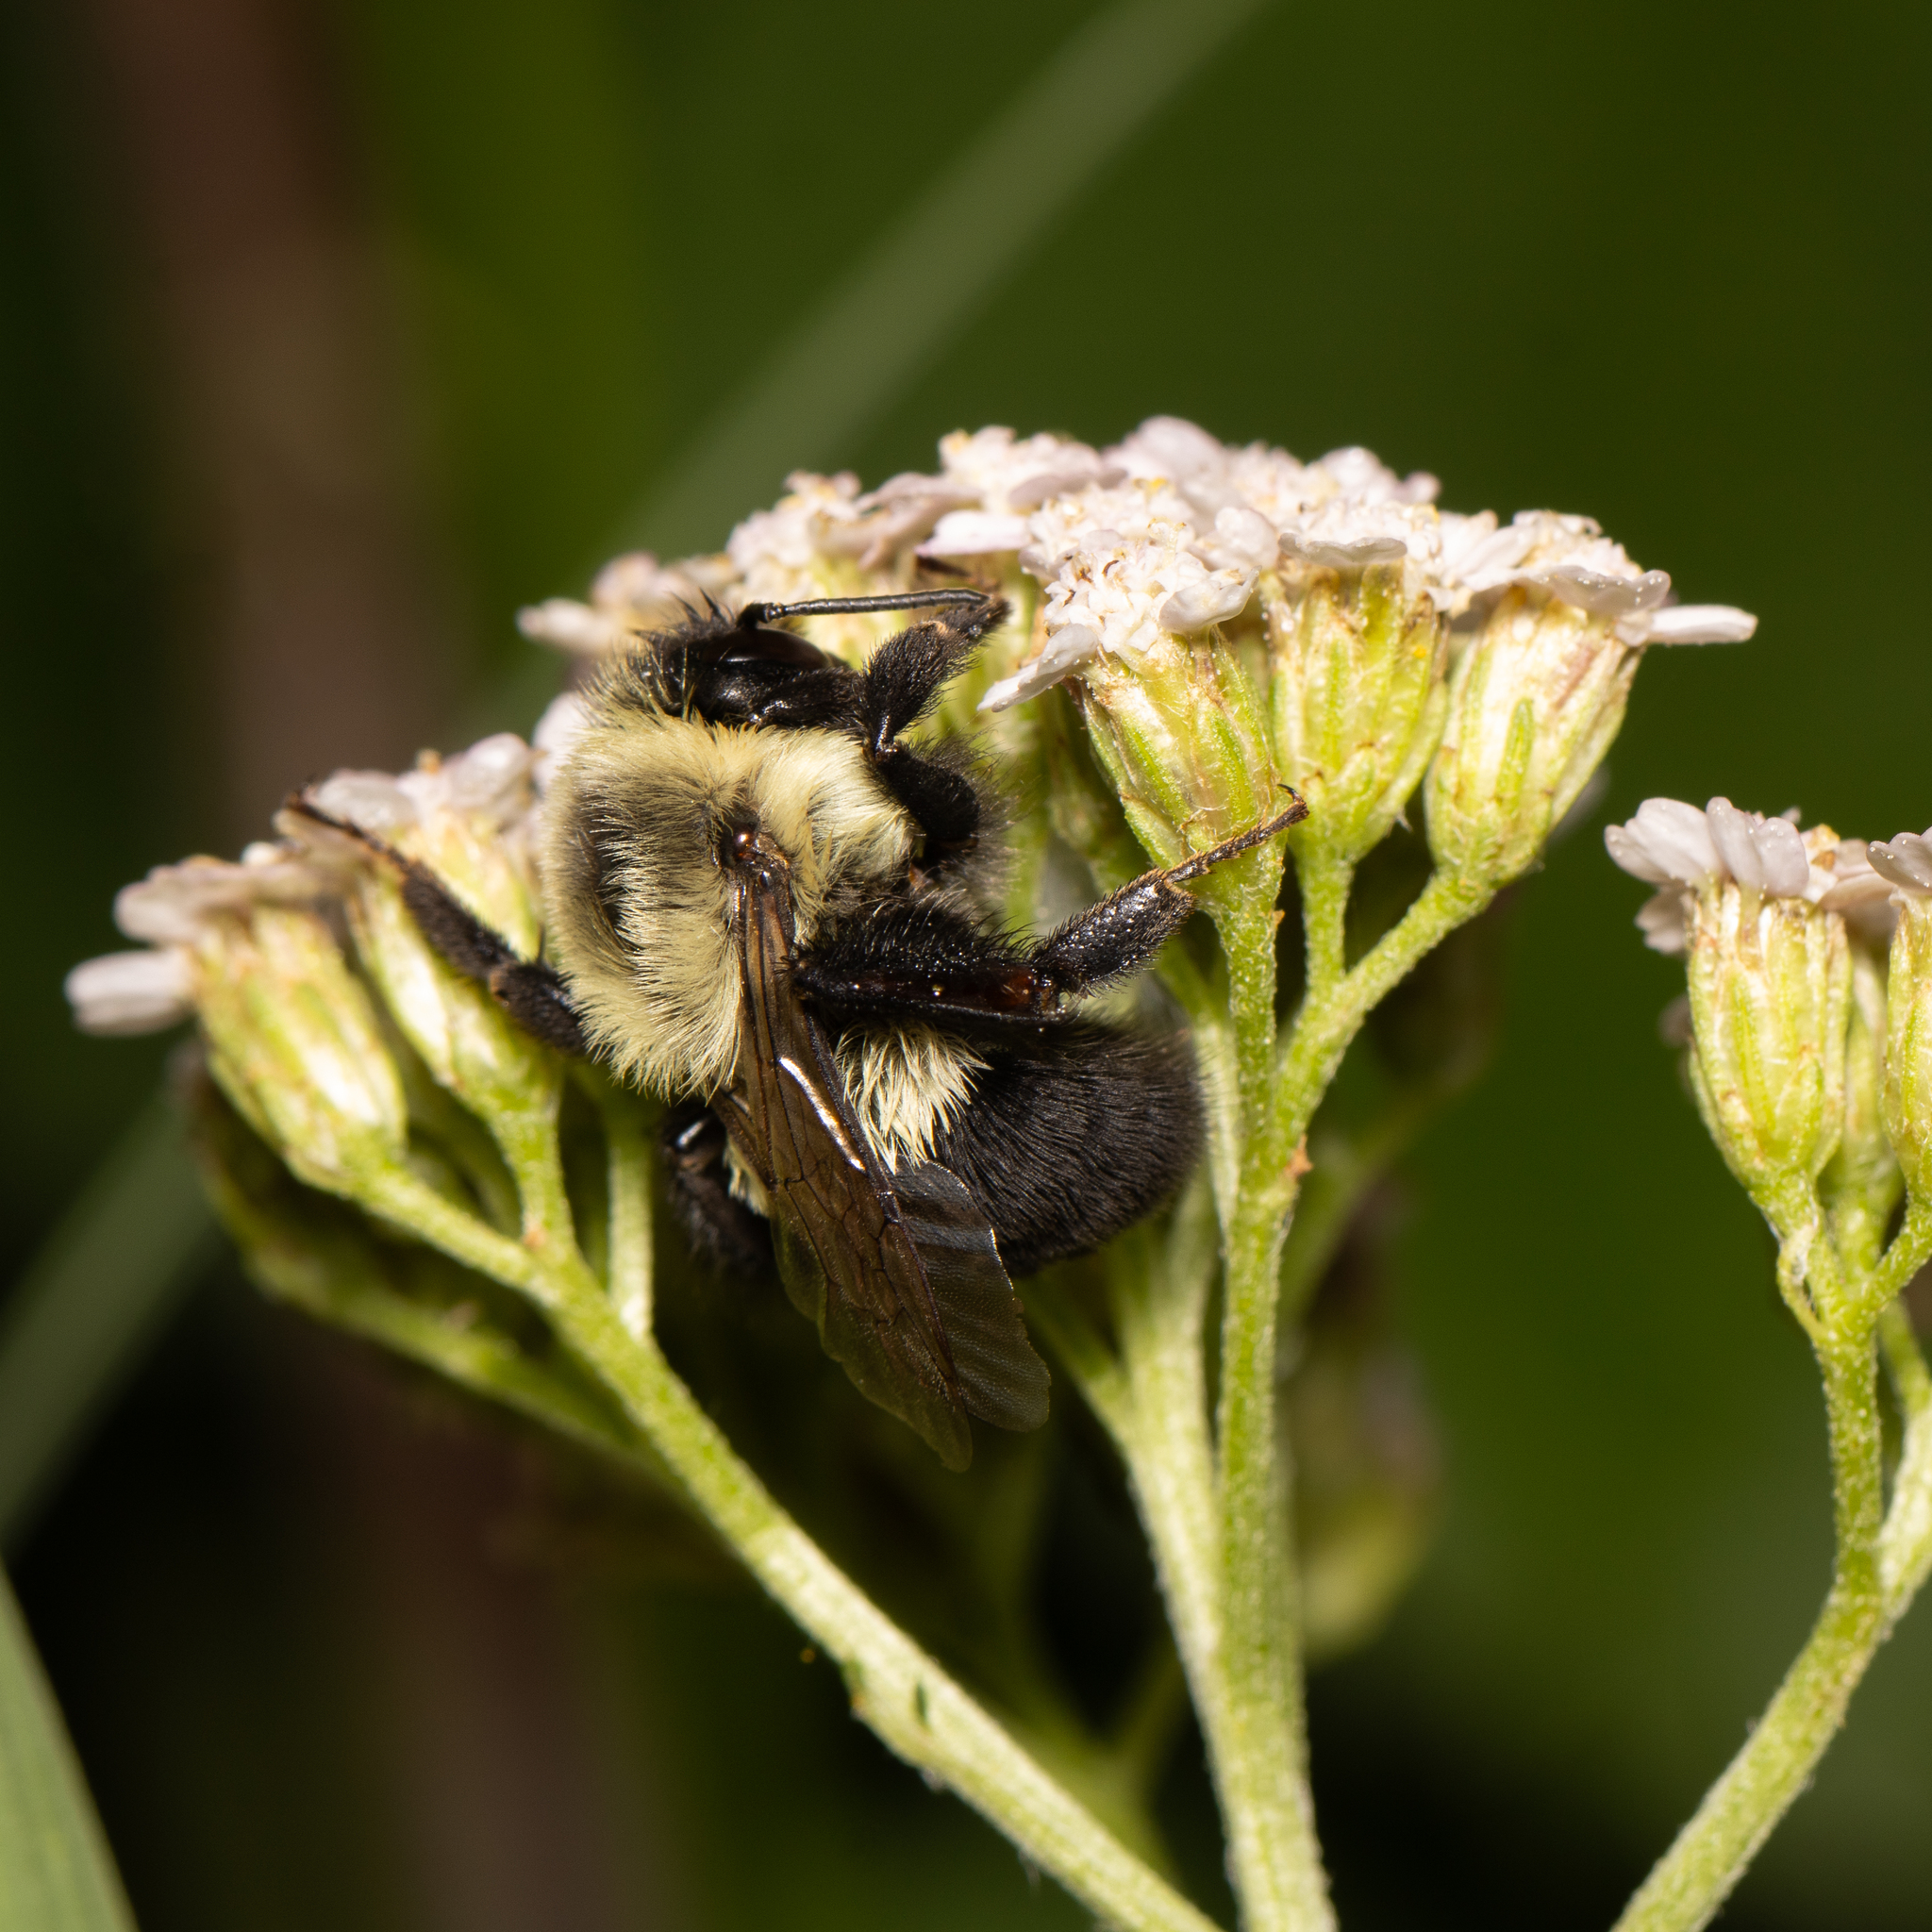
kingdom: Animalia
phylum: Arthropoda
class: Insecta
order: Hymenoptera
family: Apidae
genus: Bombus
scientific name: Bombus impatiens
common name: Common eastern bumble bee
